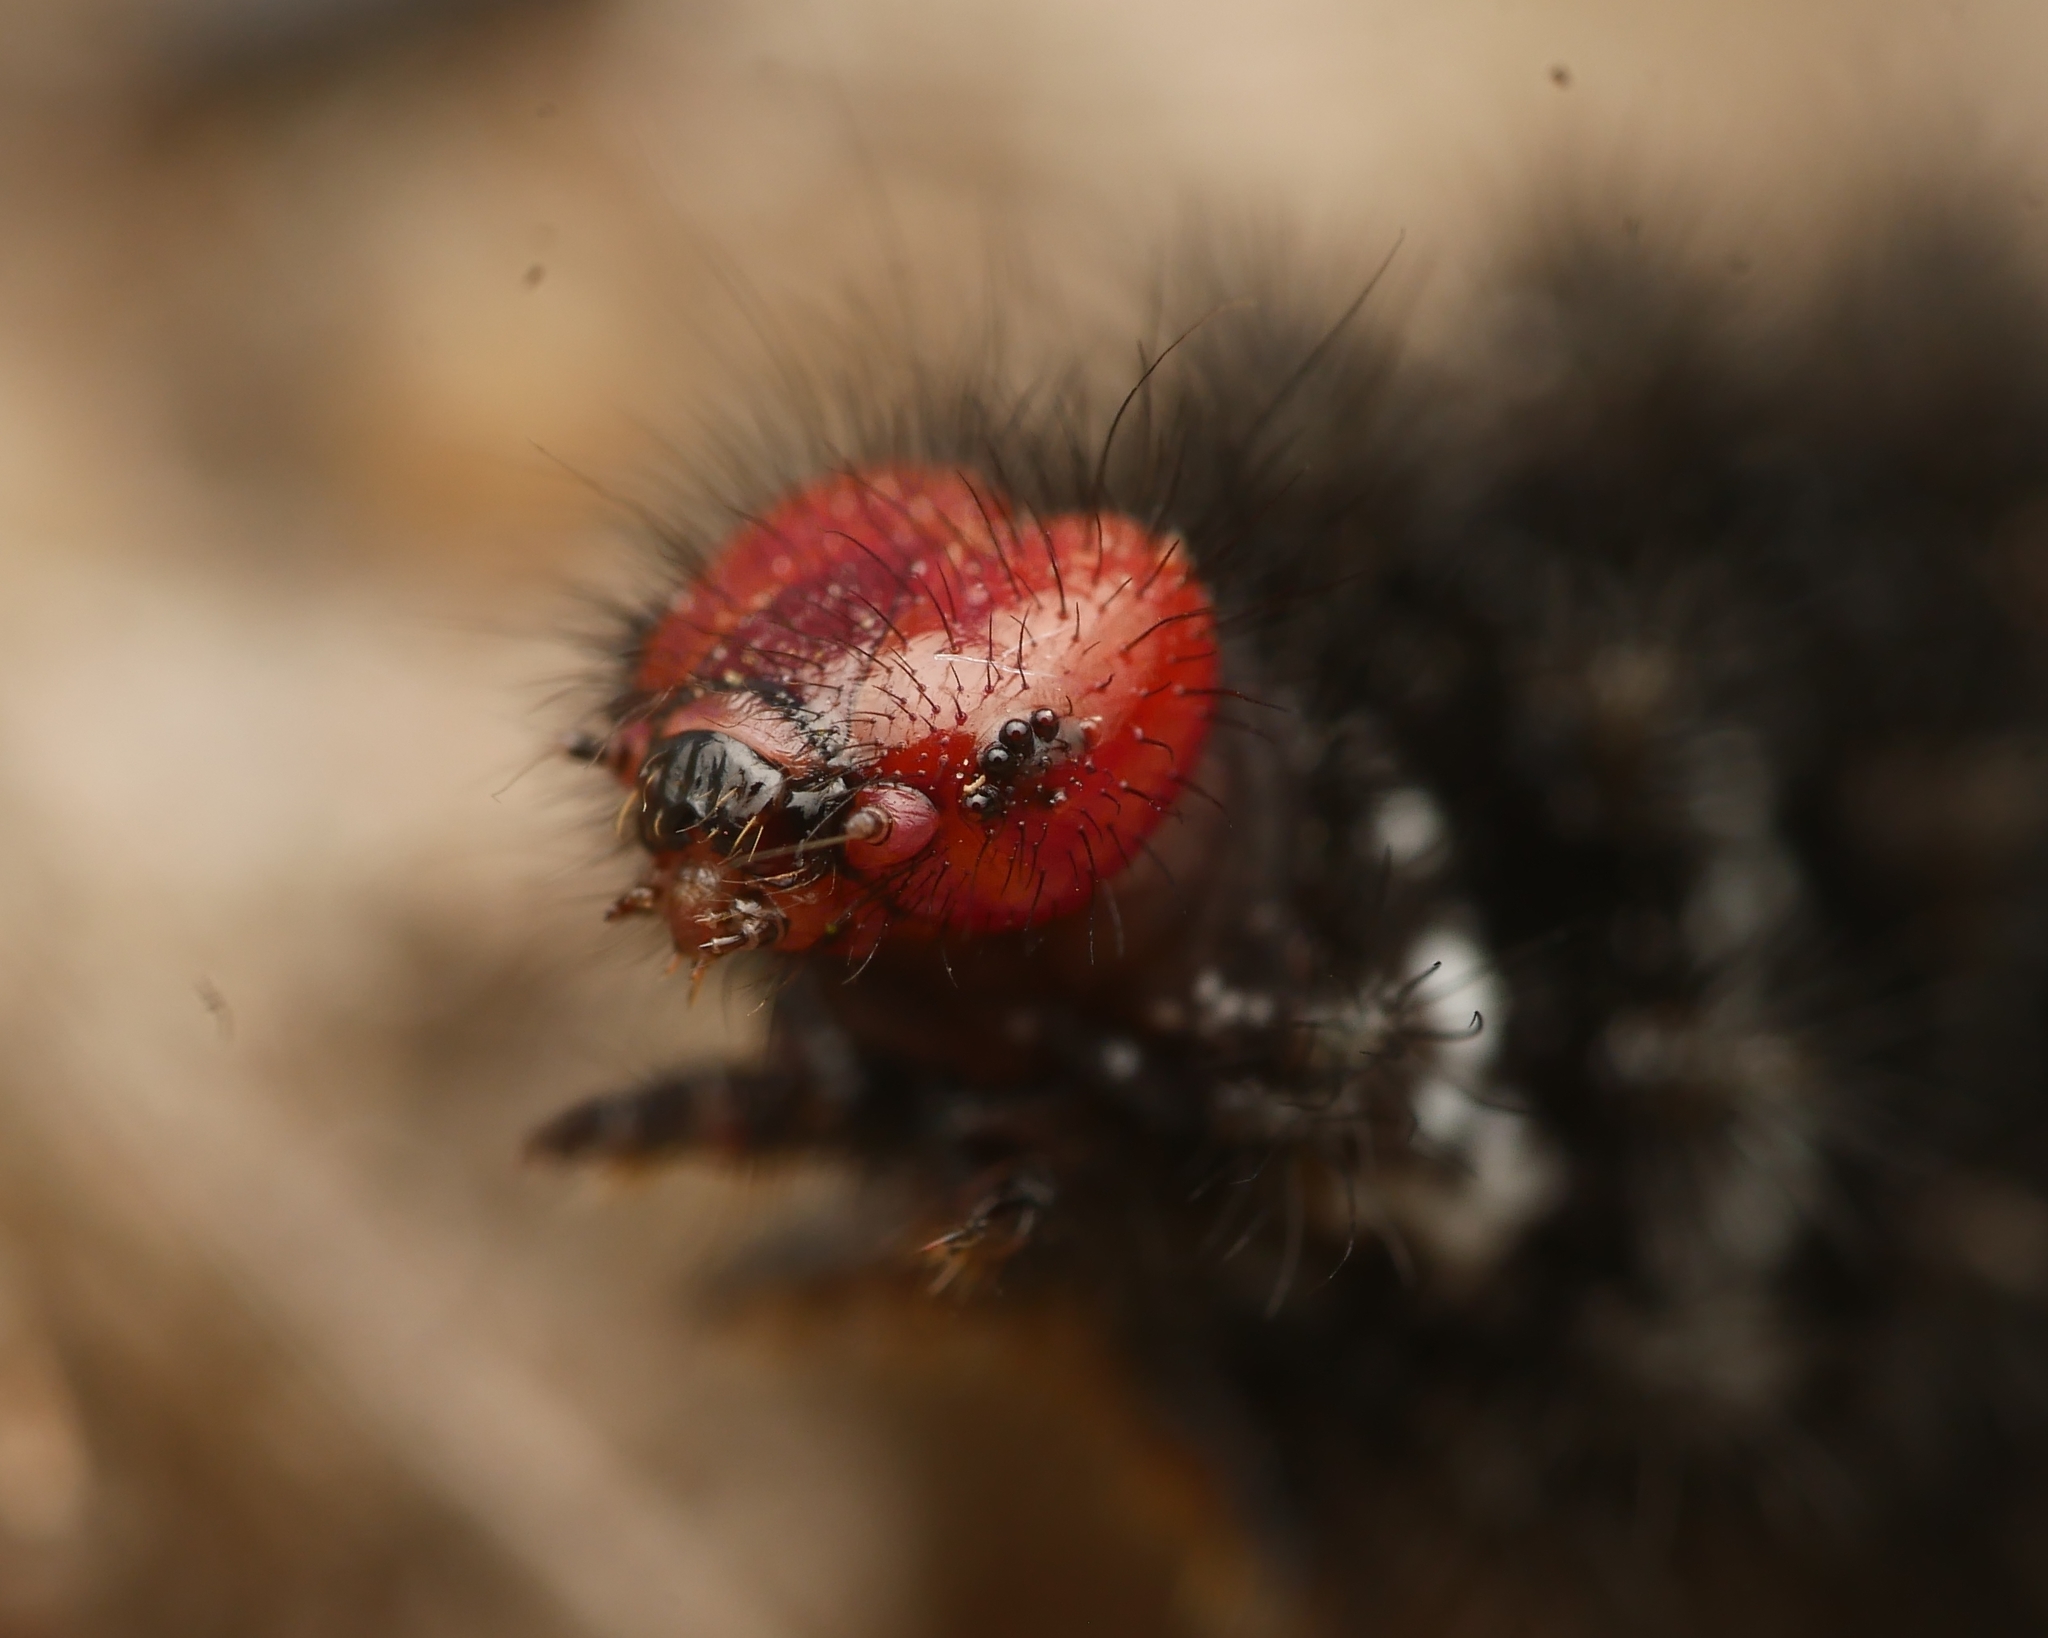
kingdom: Animalia
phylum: Arthropoda
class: Insecta
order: Lepidoptera
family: Nymphalidae
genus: Melitaea
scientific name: Melitaea cinxia
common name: Glanville fritillary
